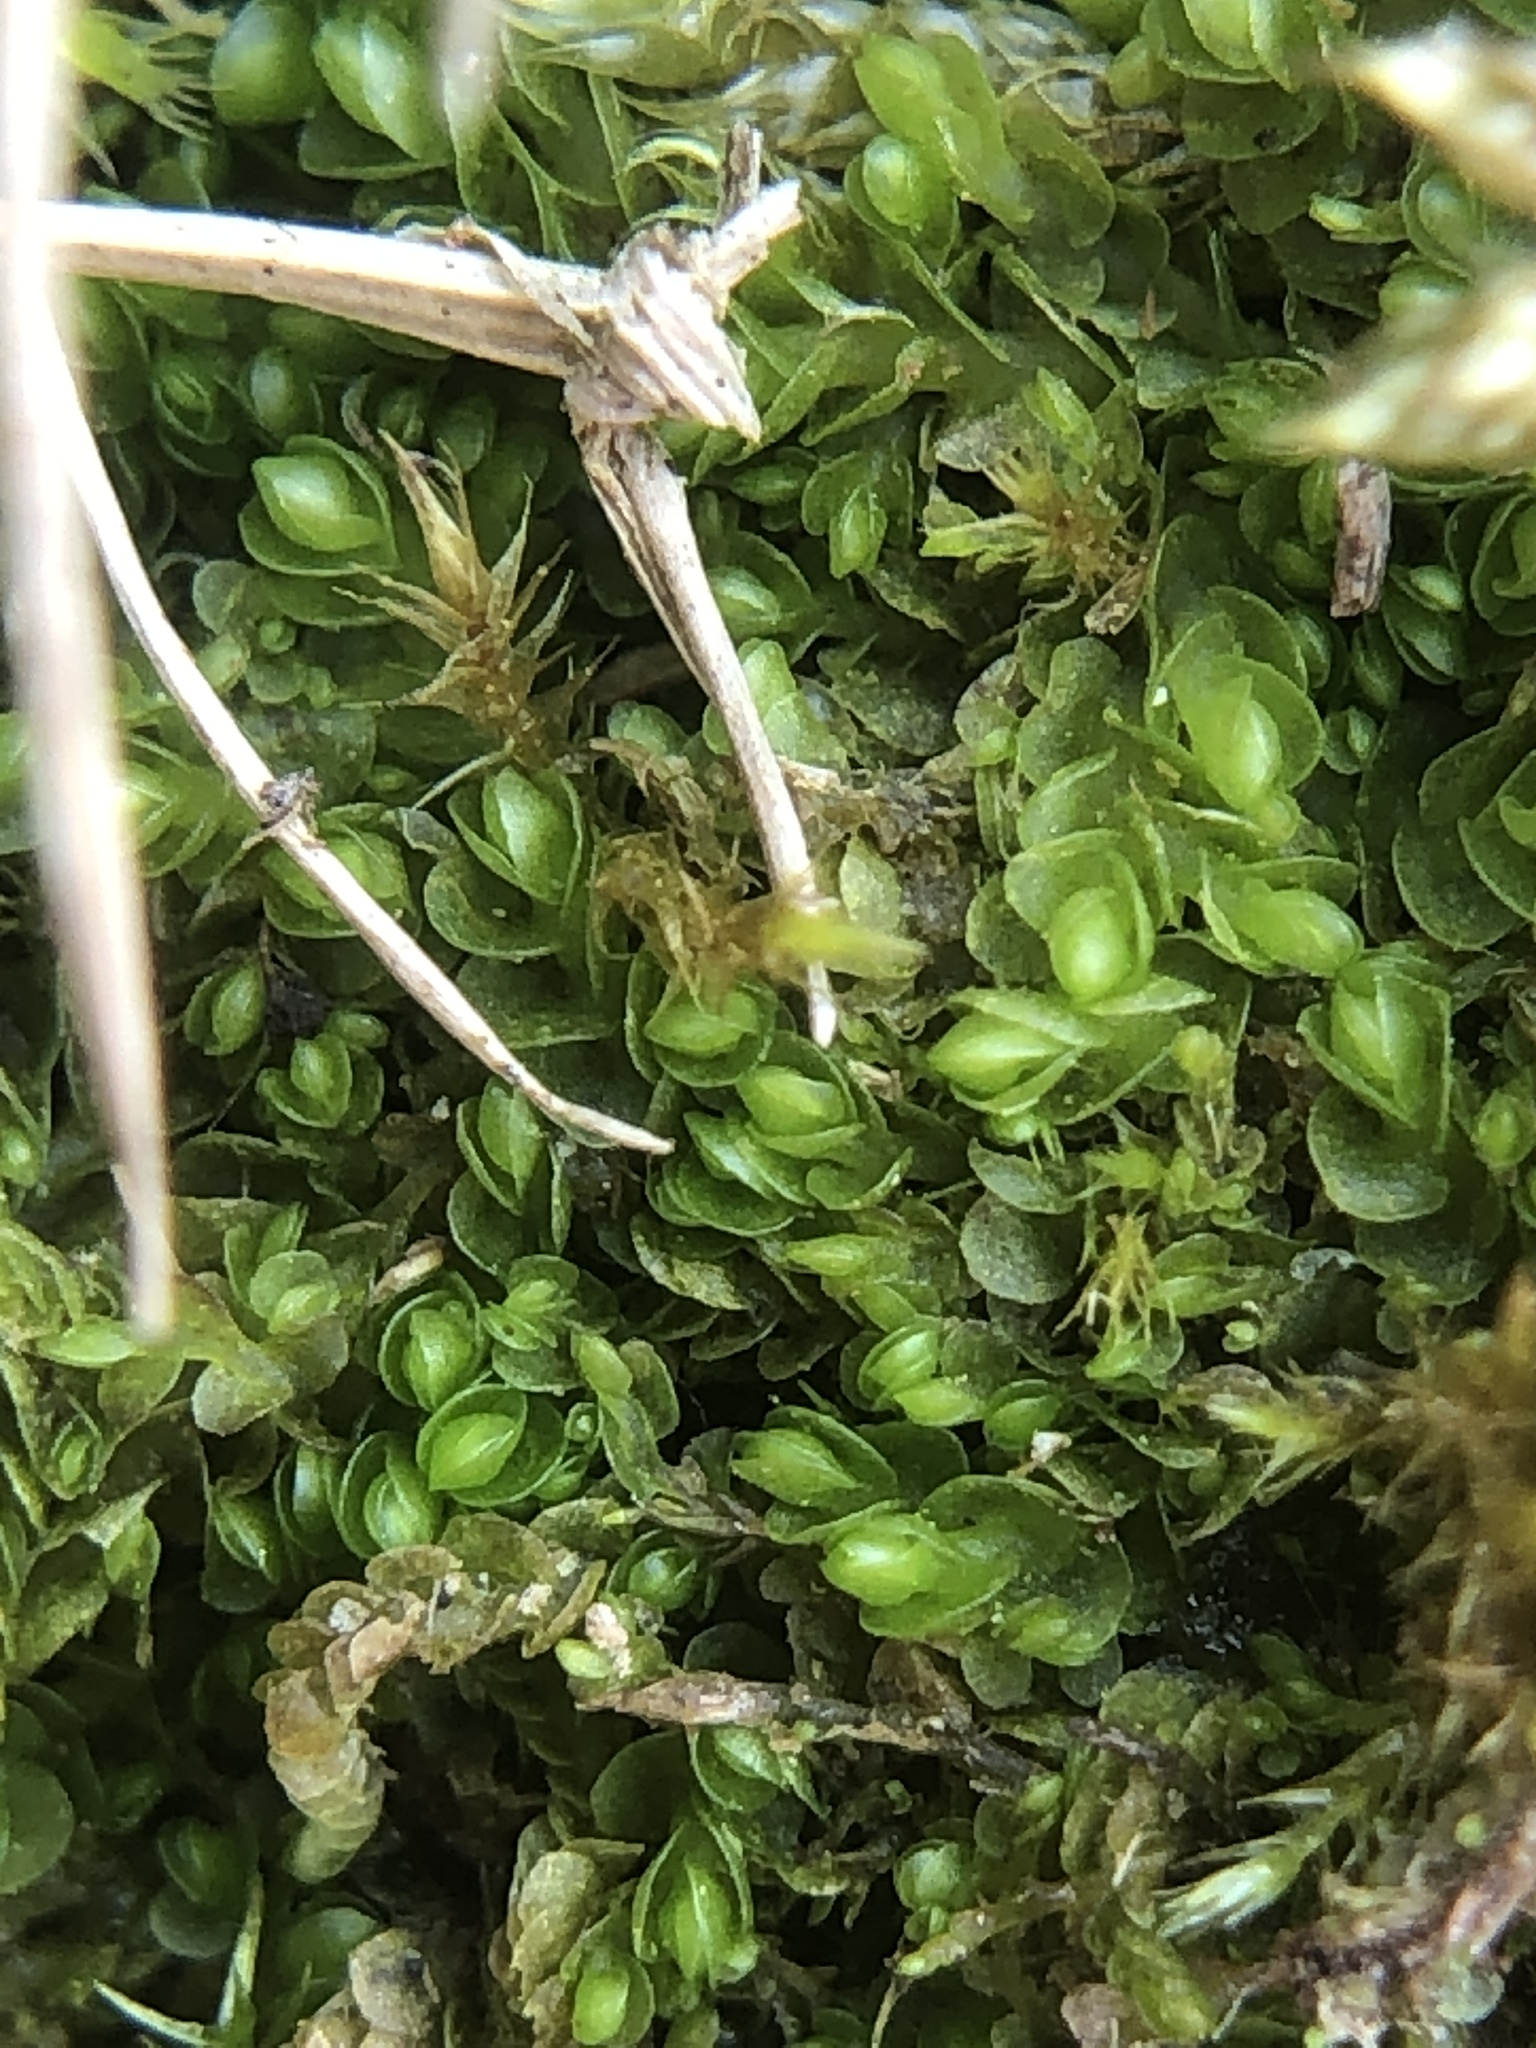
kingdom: Plantae
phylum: Marchantiophyta
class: Jungermanniopsida
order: Jungermanniales
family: Solenostomataceae
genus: Solenostoma
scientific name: Solenostoma gracillimum
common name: Crenulated flapwort
